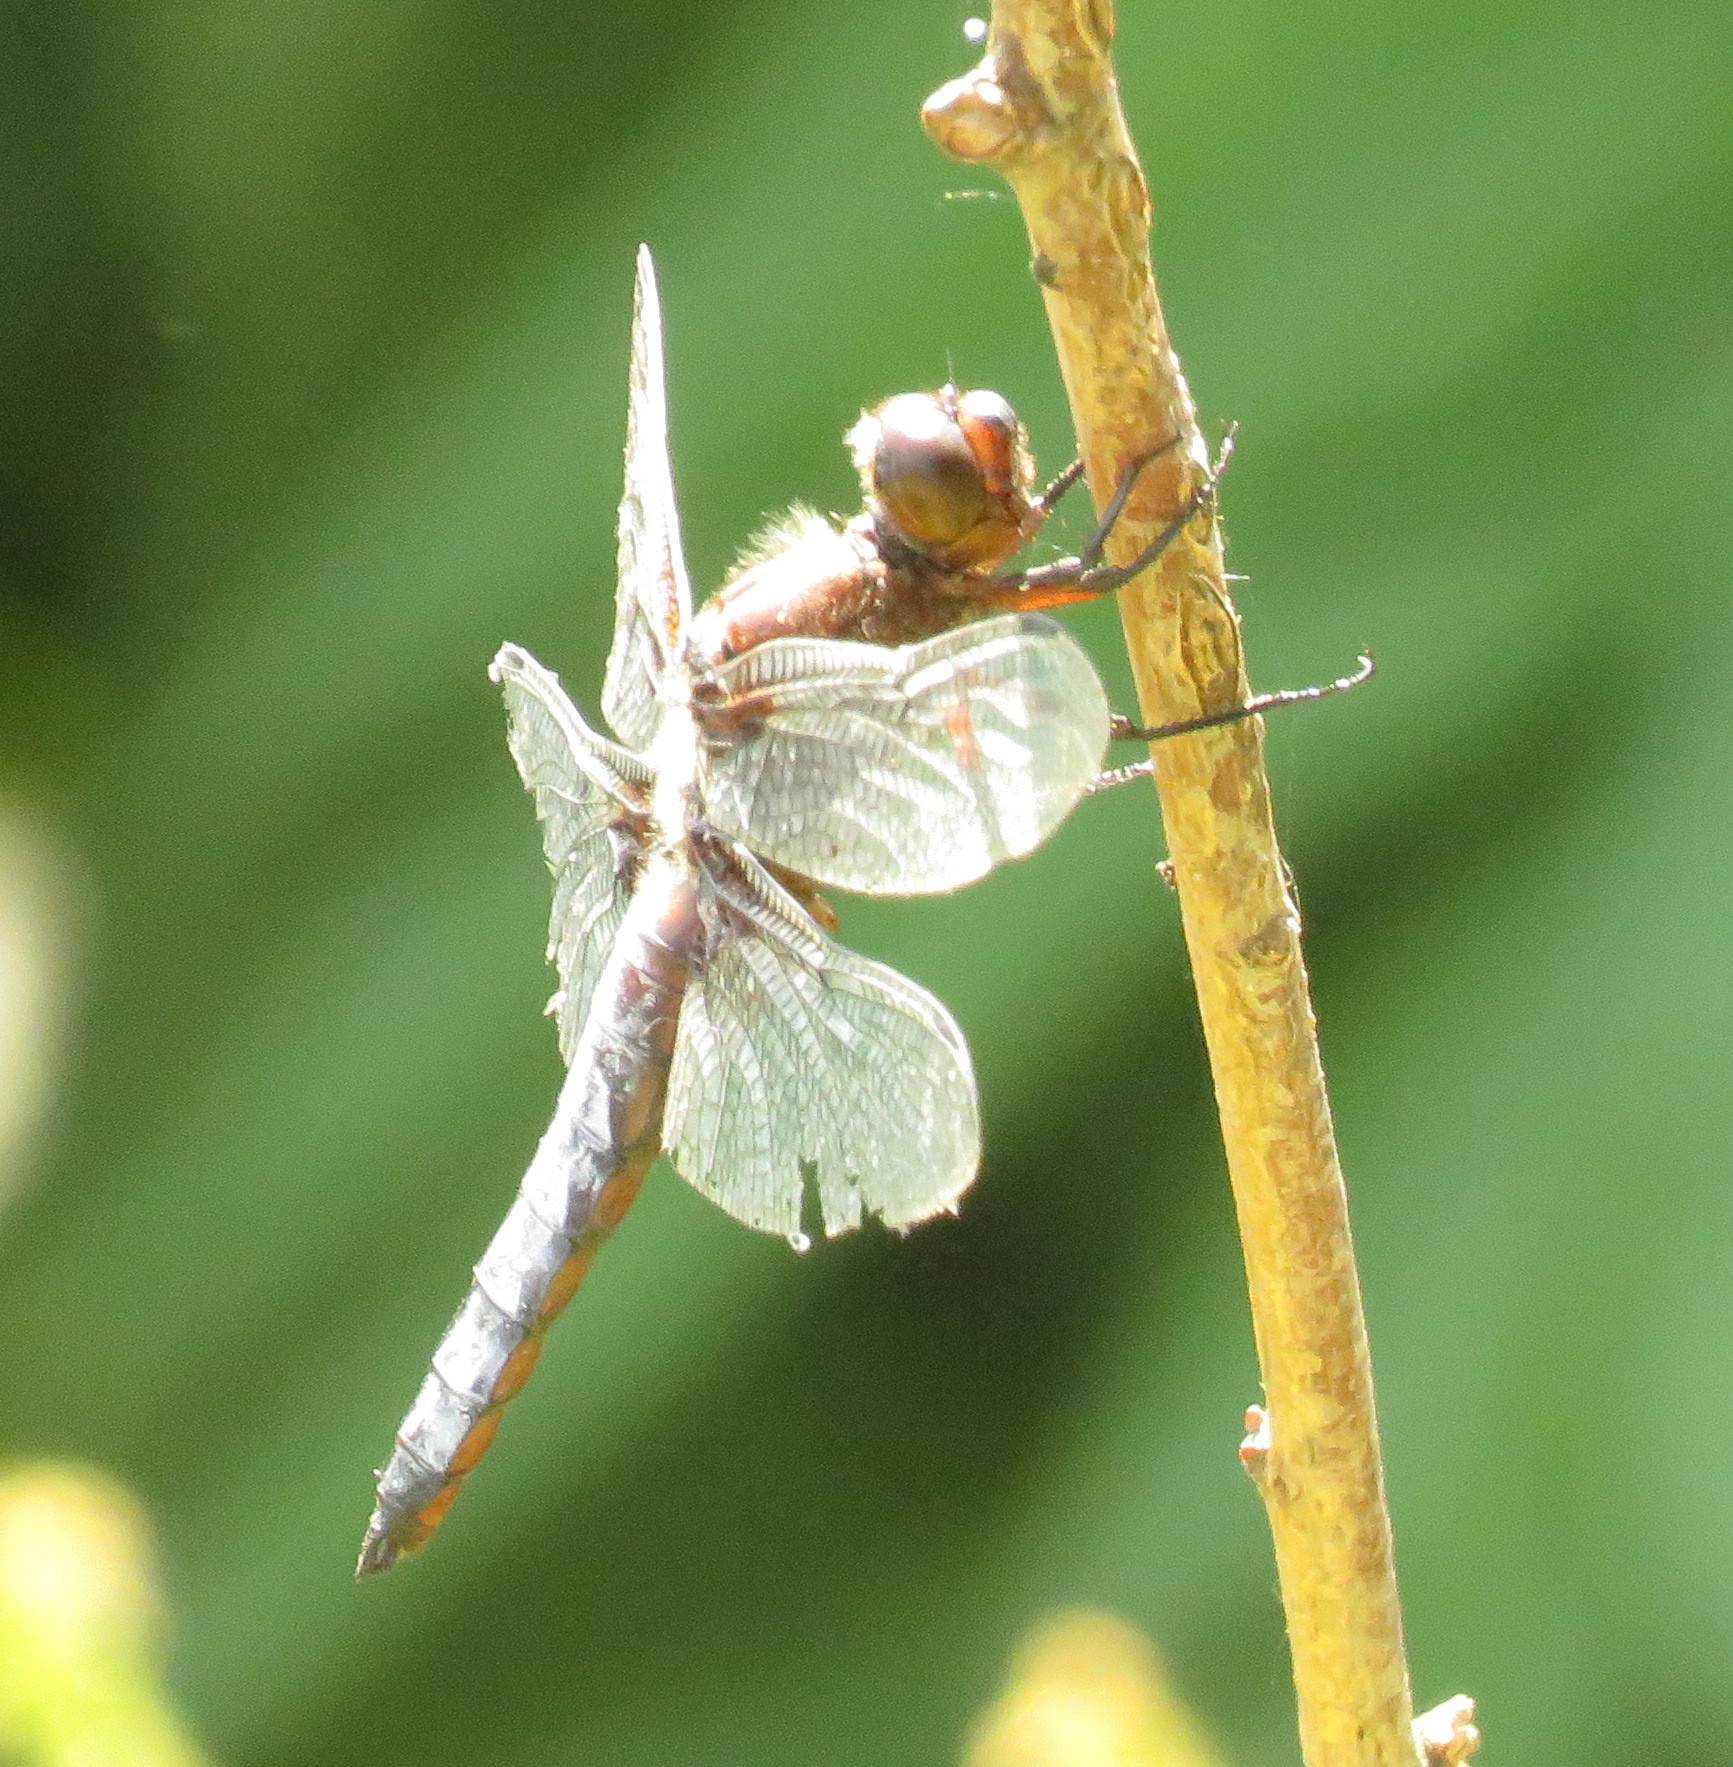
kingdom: Animalia
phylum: Arthropoda
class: Insecta
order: Odonata
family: Libellulidae
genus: Libellula
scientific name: Libellula depressa
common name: Broad-bodied chaser
